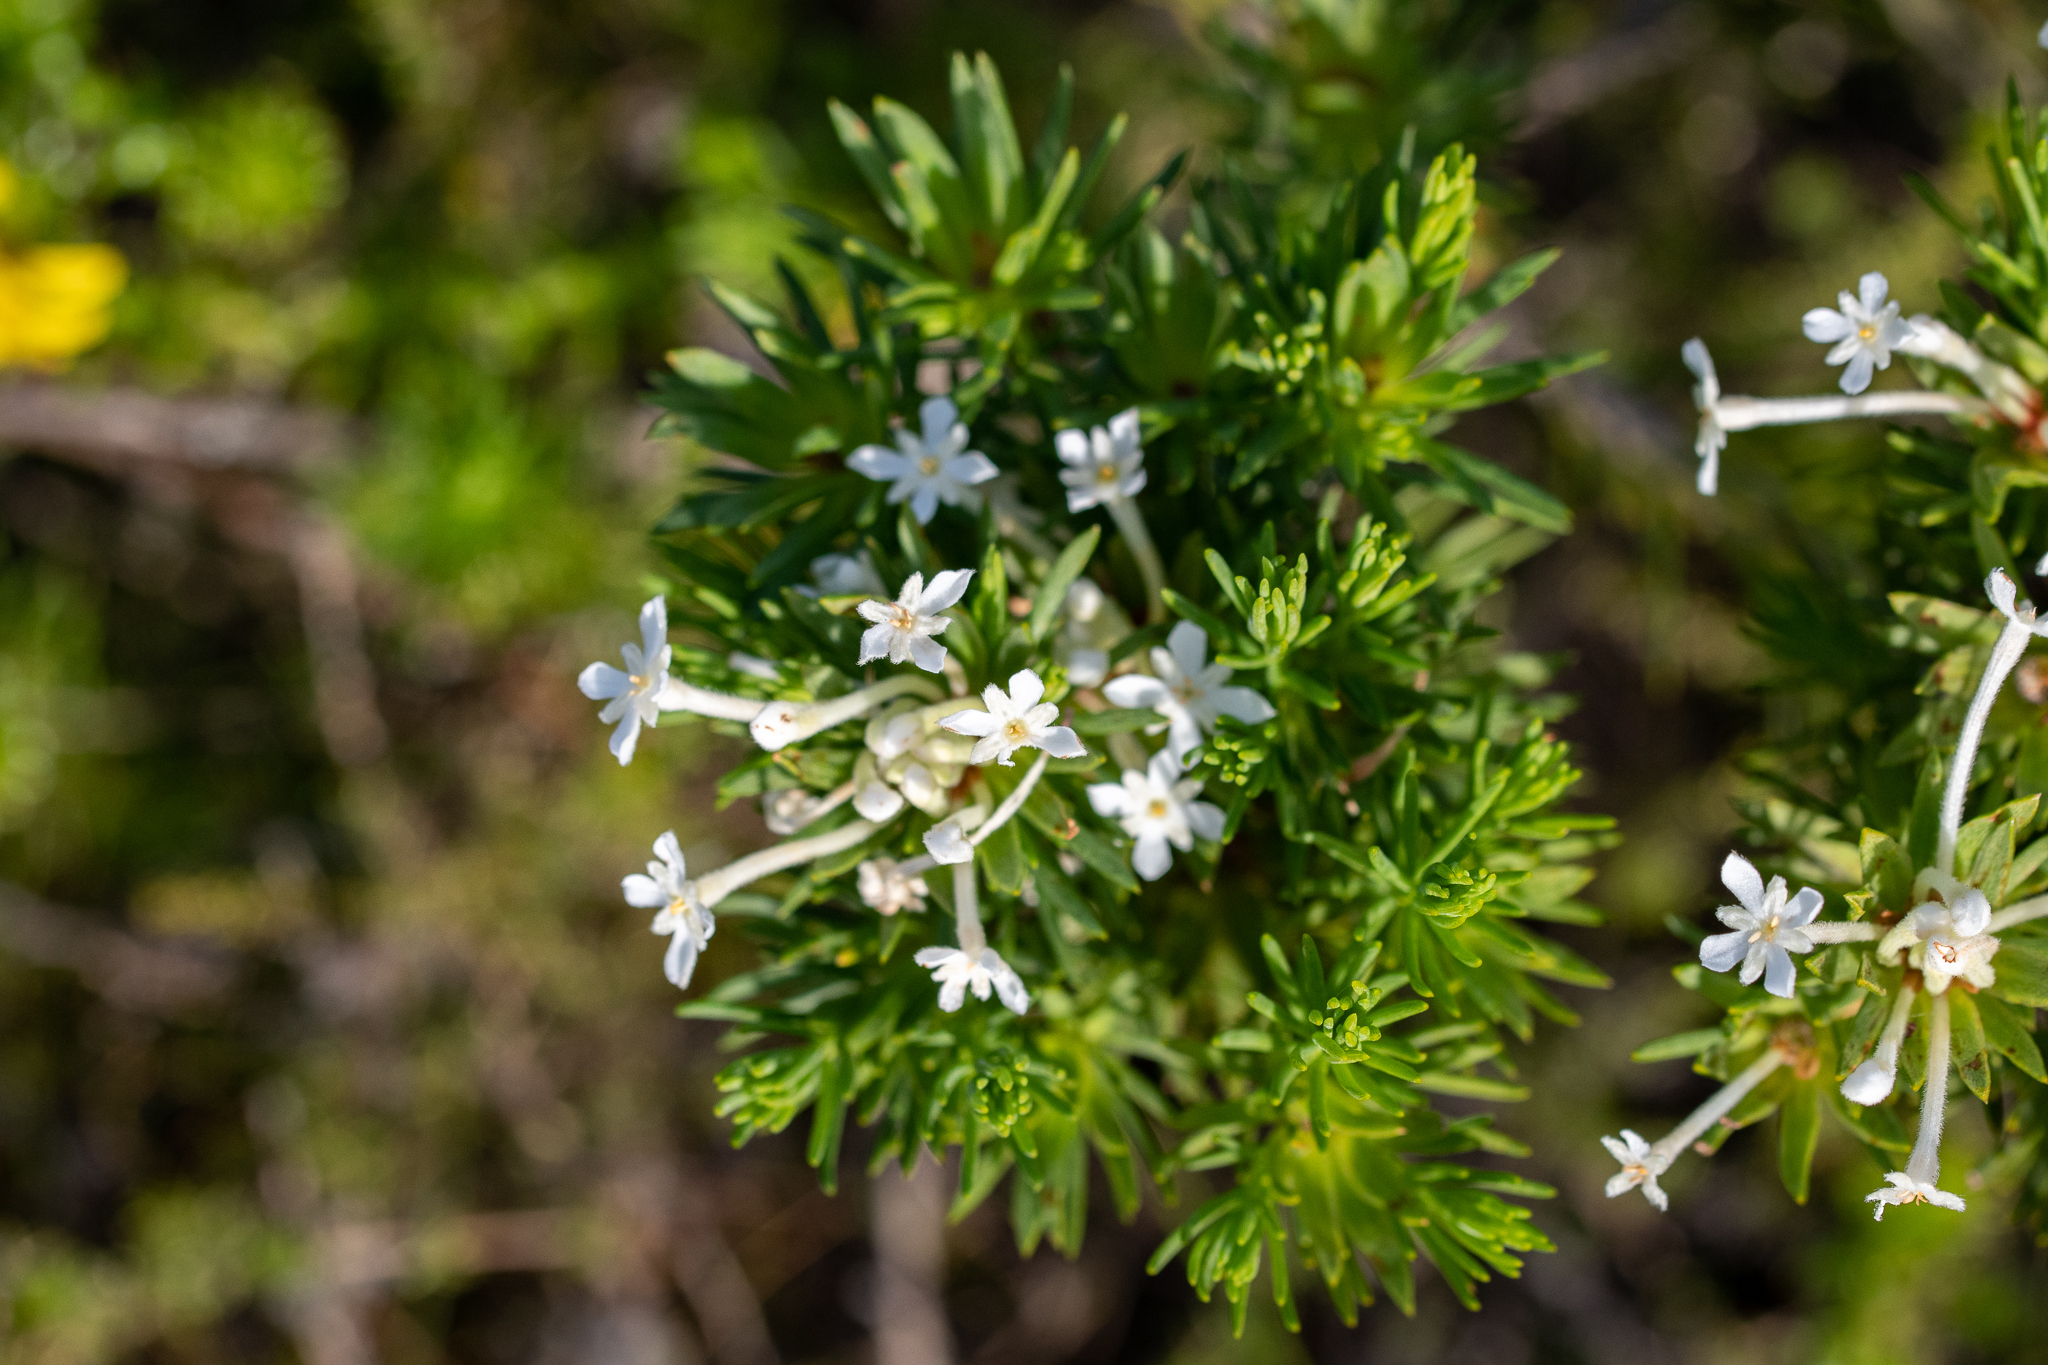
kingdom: Plantae
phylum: Tracheophyta
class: Magnoliopsida
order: Malvales
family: Thymelaeaceae
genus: Gnidia
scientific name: Gnidia pinifolia
